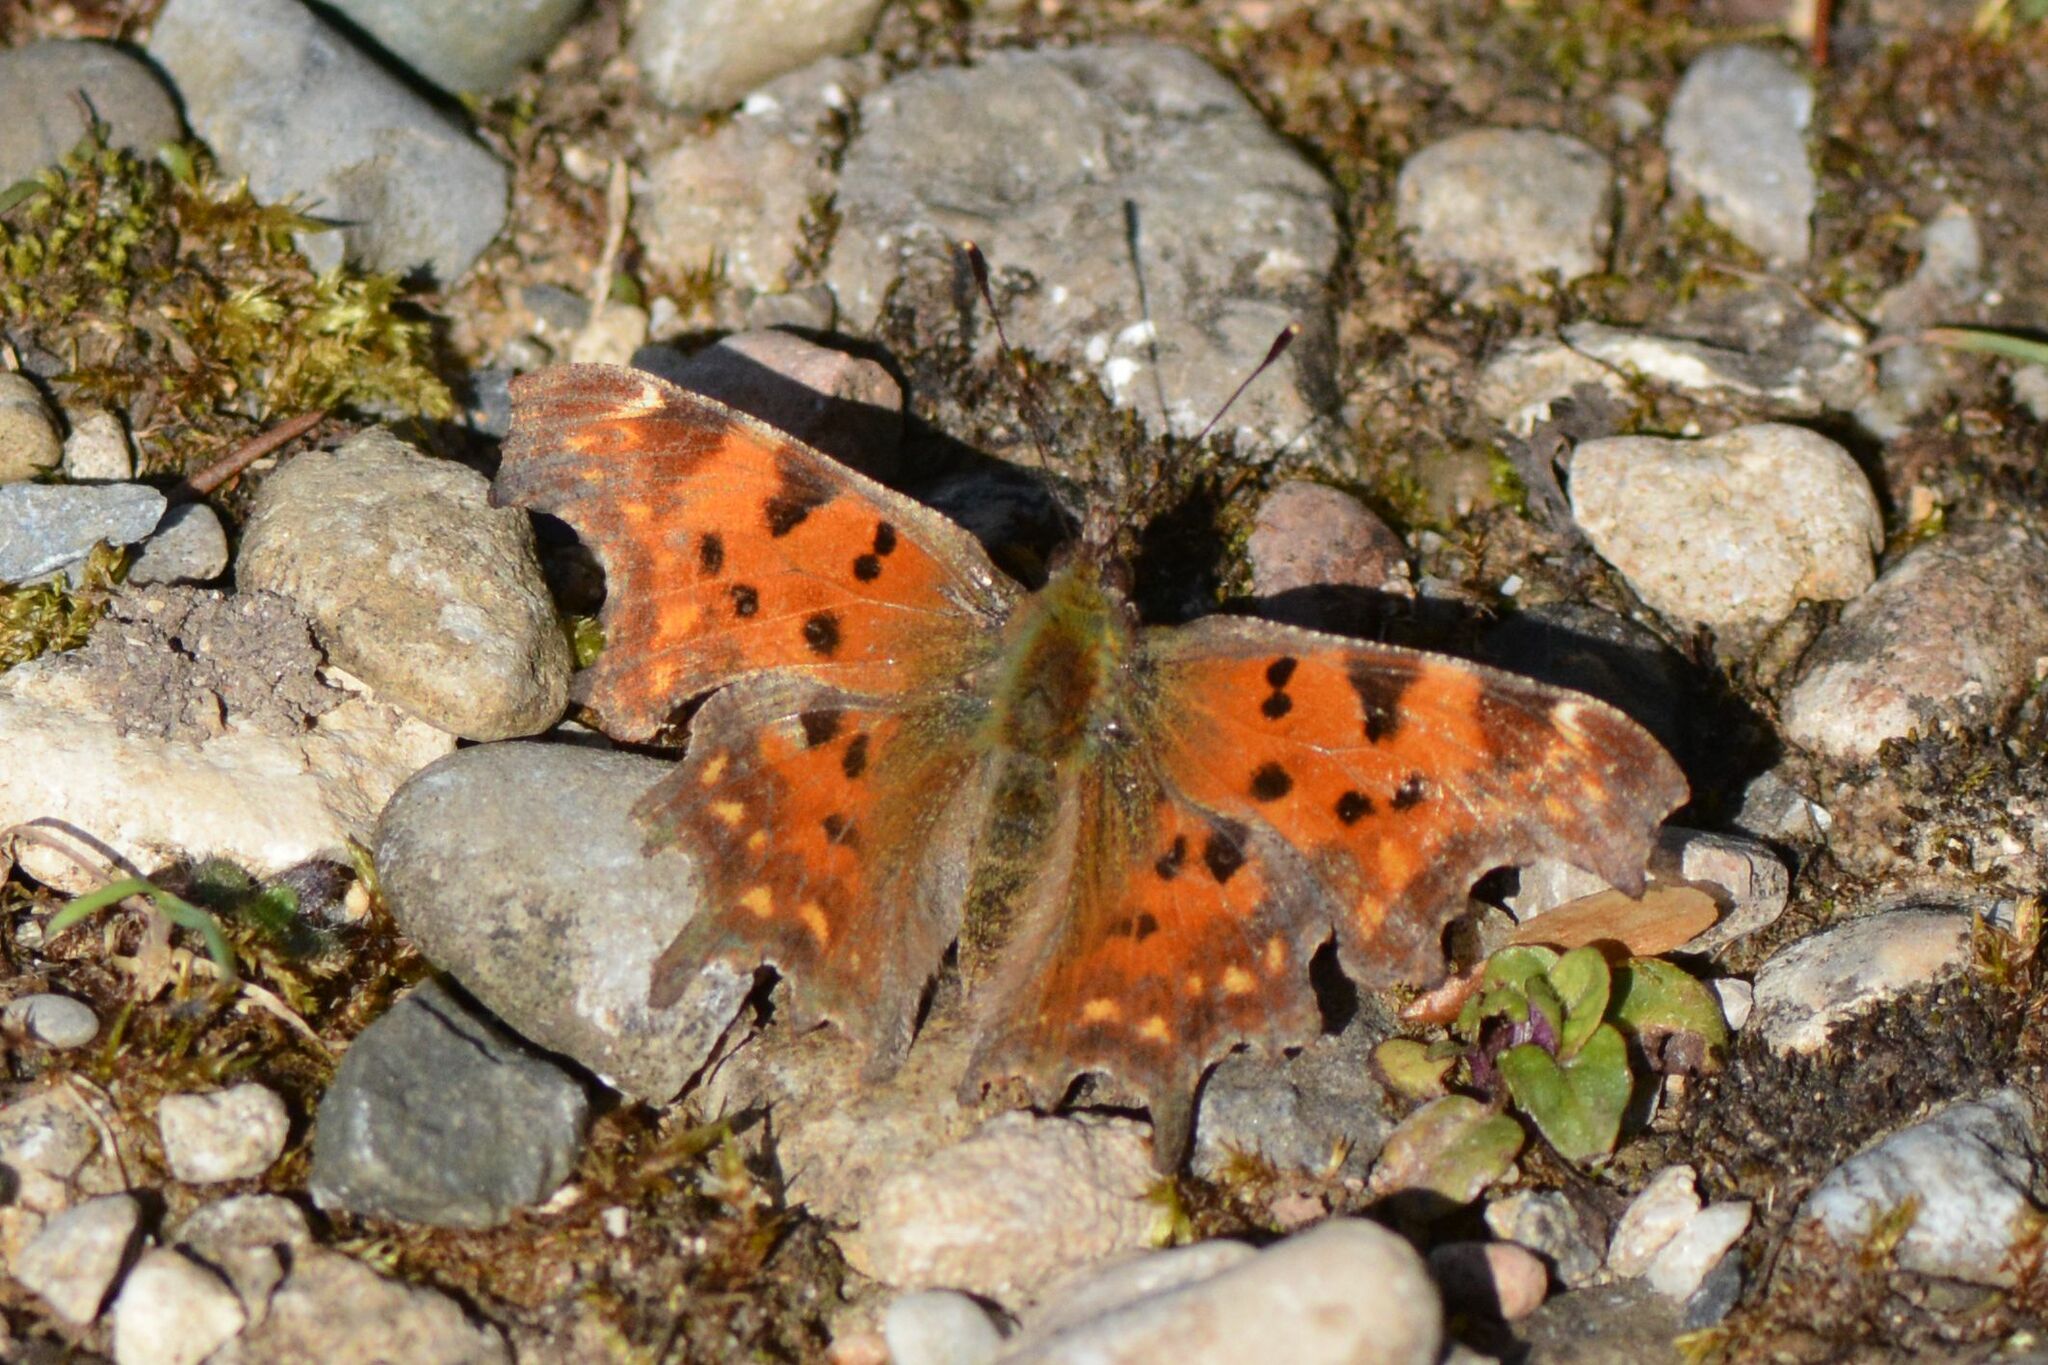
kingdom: Animalia
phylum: Arthropoda
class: Insecta
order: Lepidoptera
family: Nymphalidae
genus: Polygonia
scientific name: Polygonia c-album
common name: Comma
